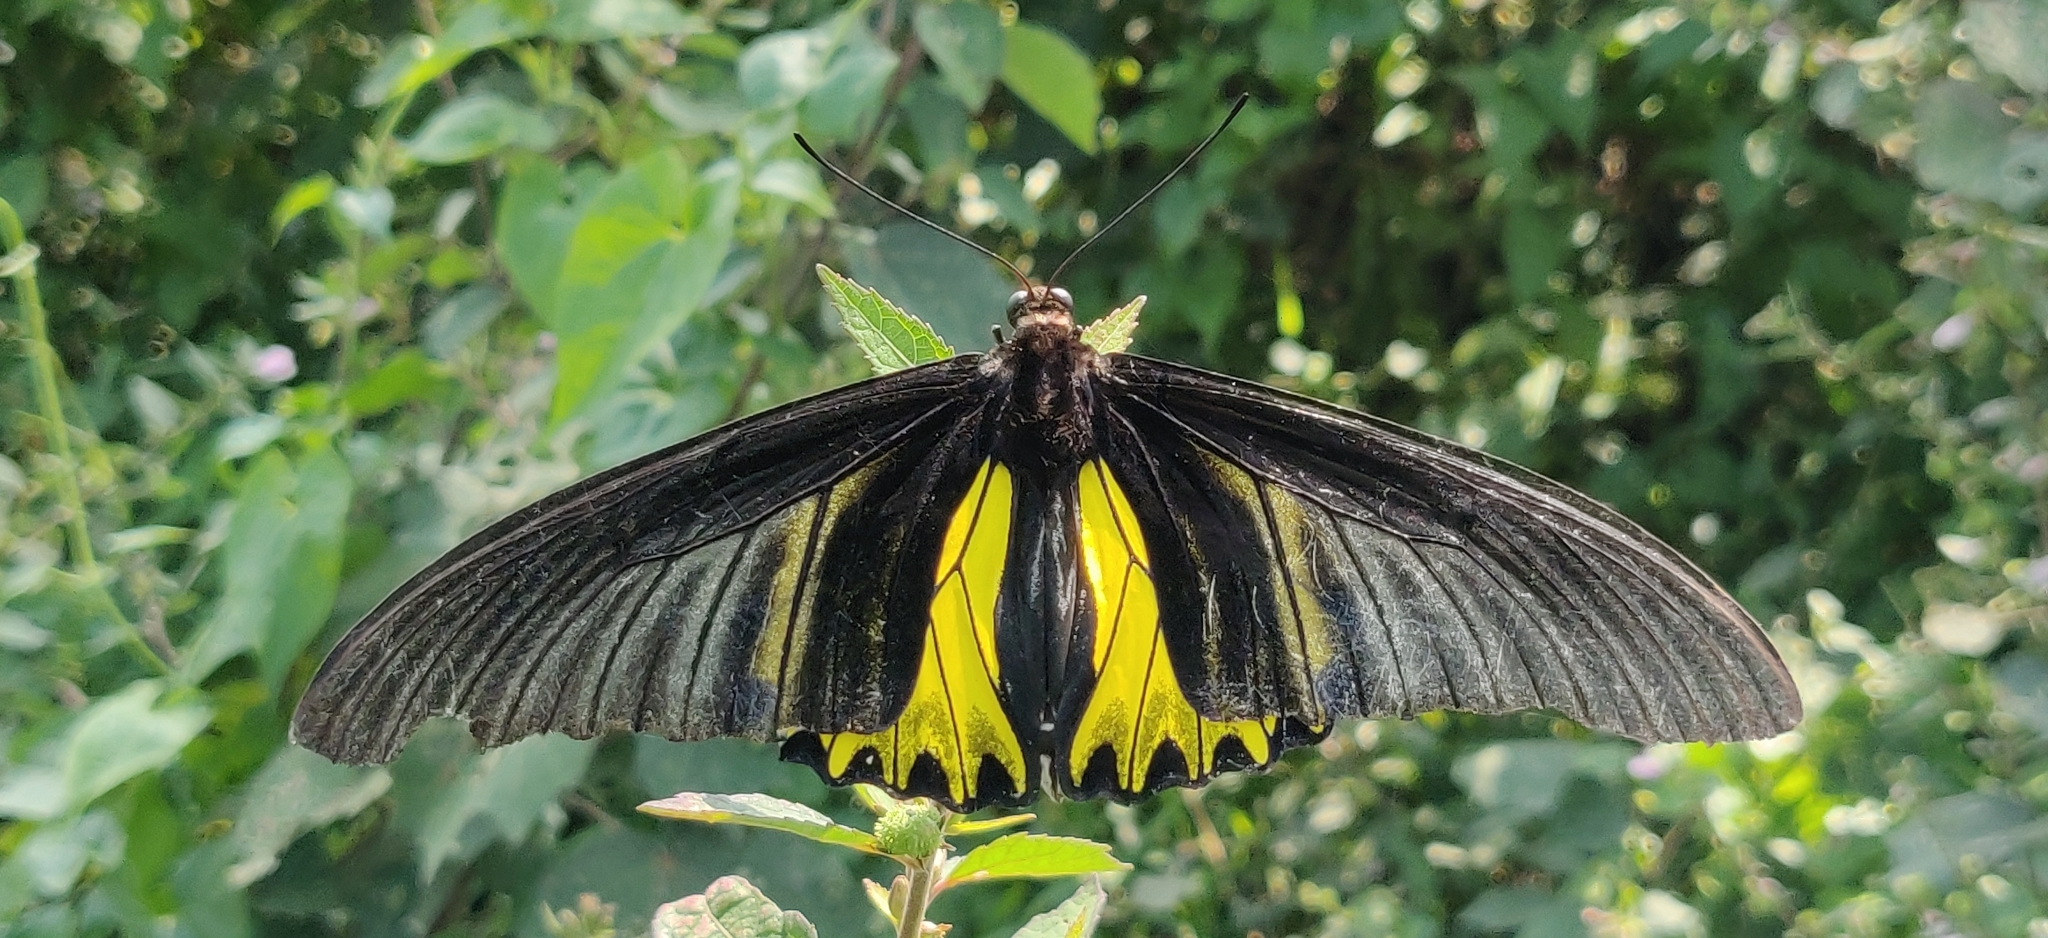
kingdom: Animalia
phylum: Arthropoda
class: Insecta
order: Lepidoptera
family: Papilionidae
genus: Troides
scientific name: Troides aeacus
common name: Golden birdwing
